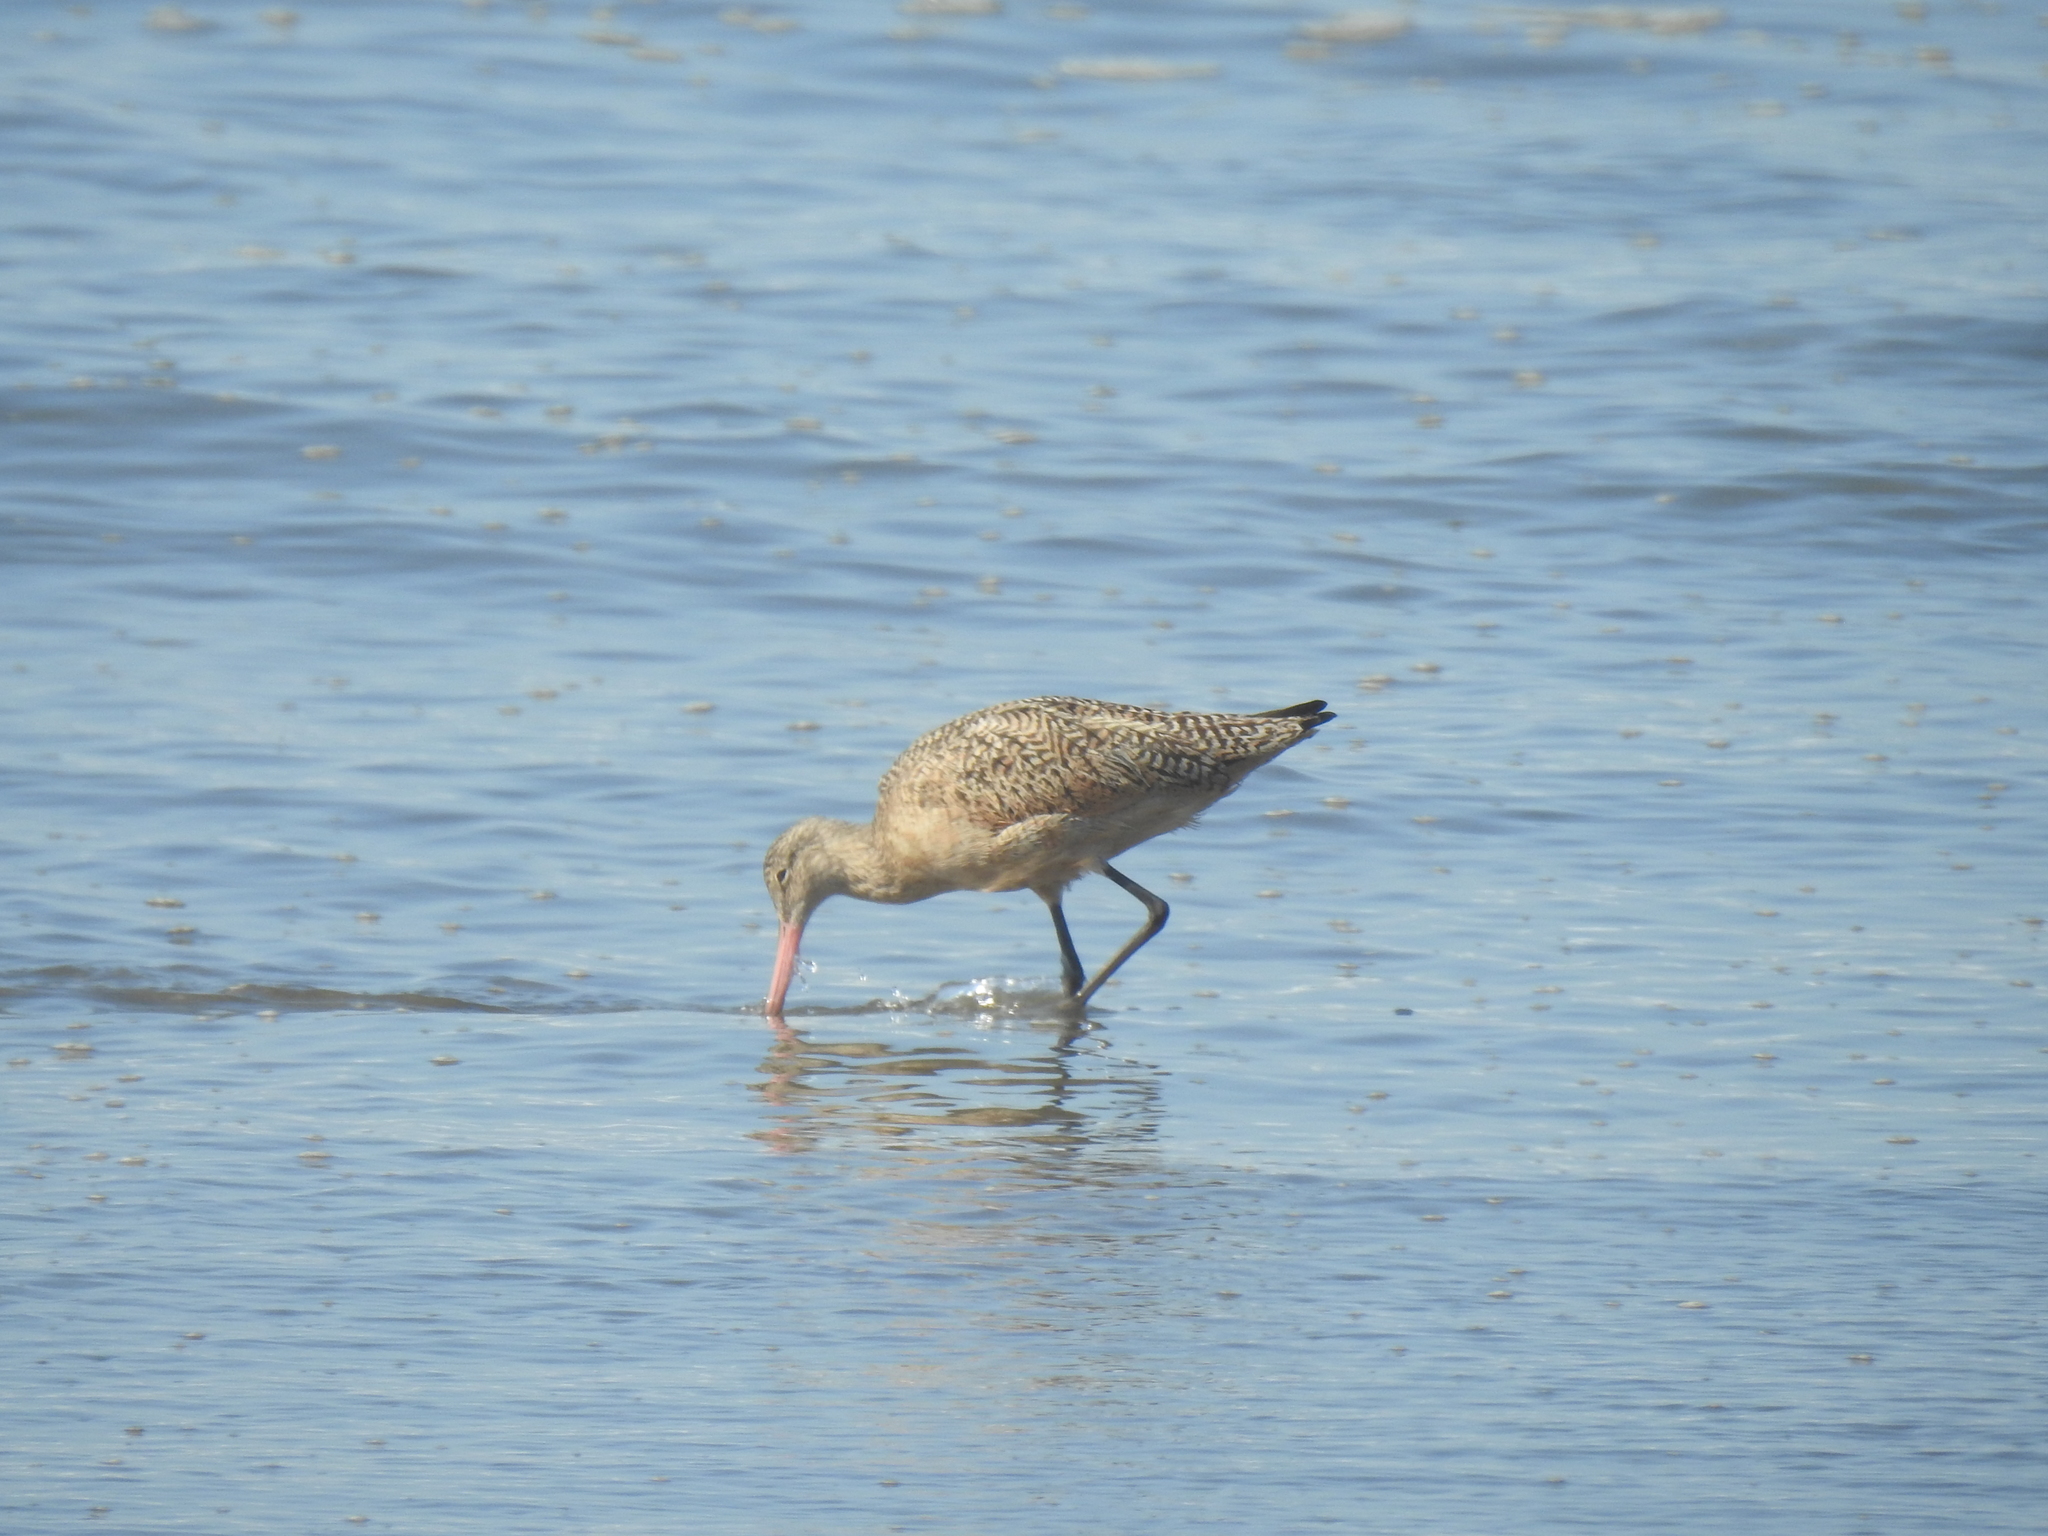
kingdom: Animalia
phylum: Chordata
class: Aves
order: Charadriiformes
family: Scolopacidae
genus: Limosa
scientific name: Limosa fedoa
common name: Marbled godwit
